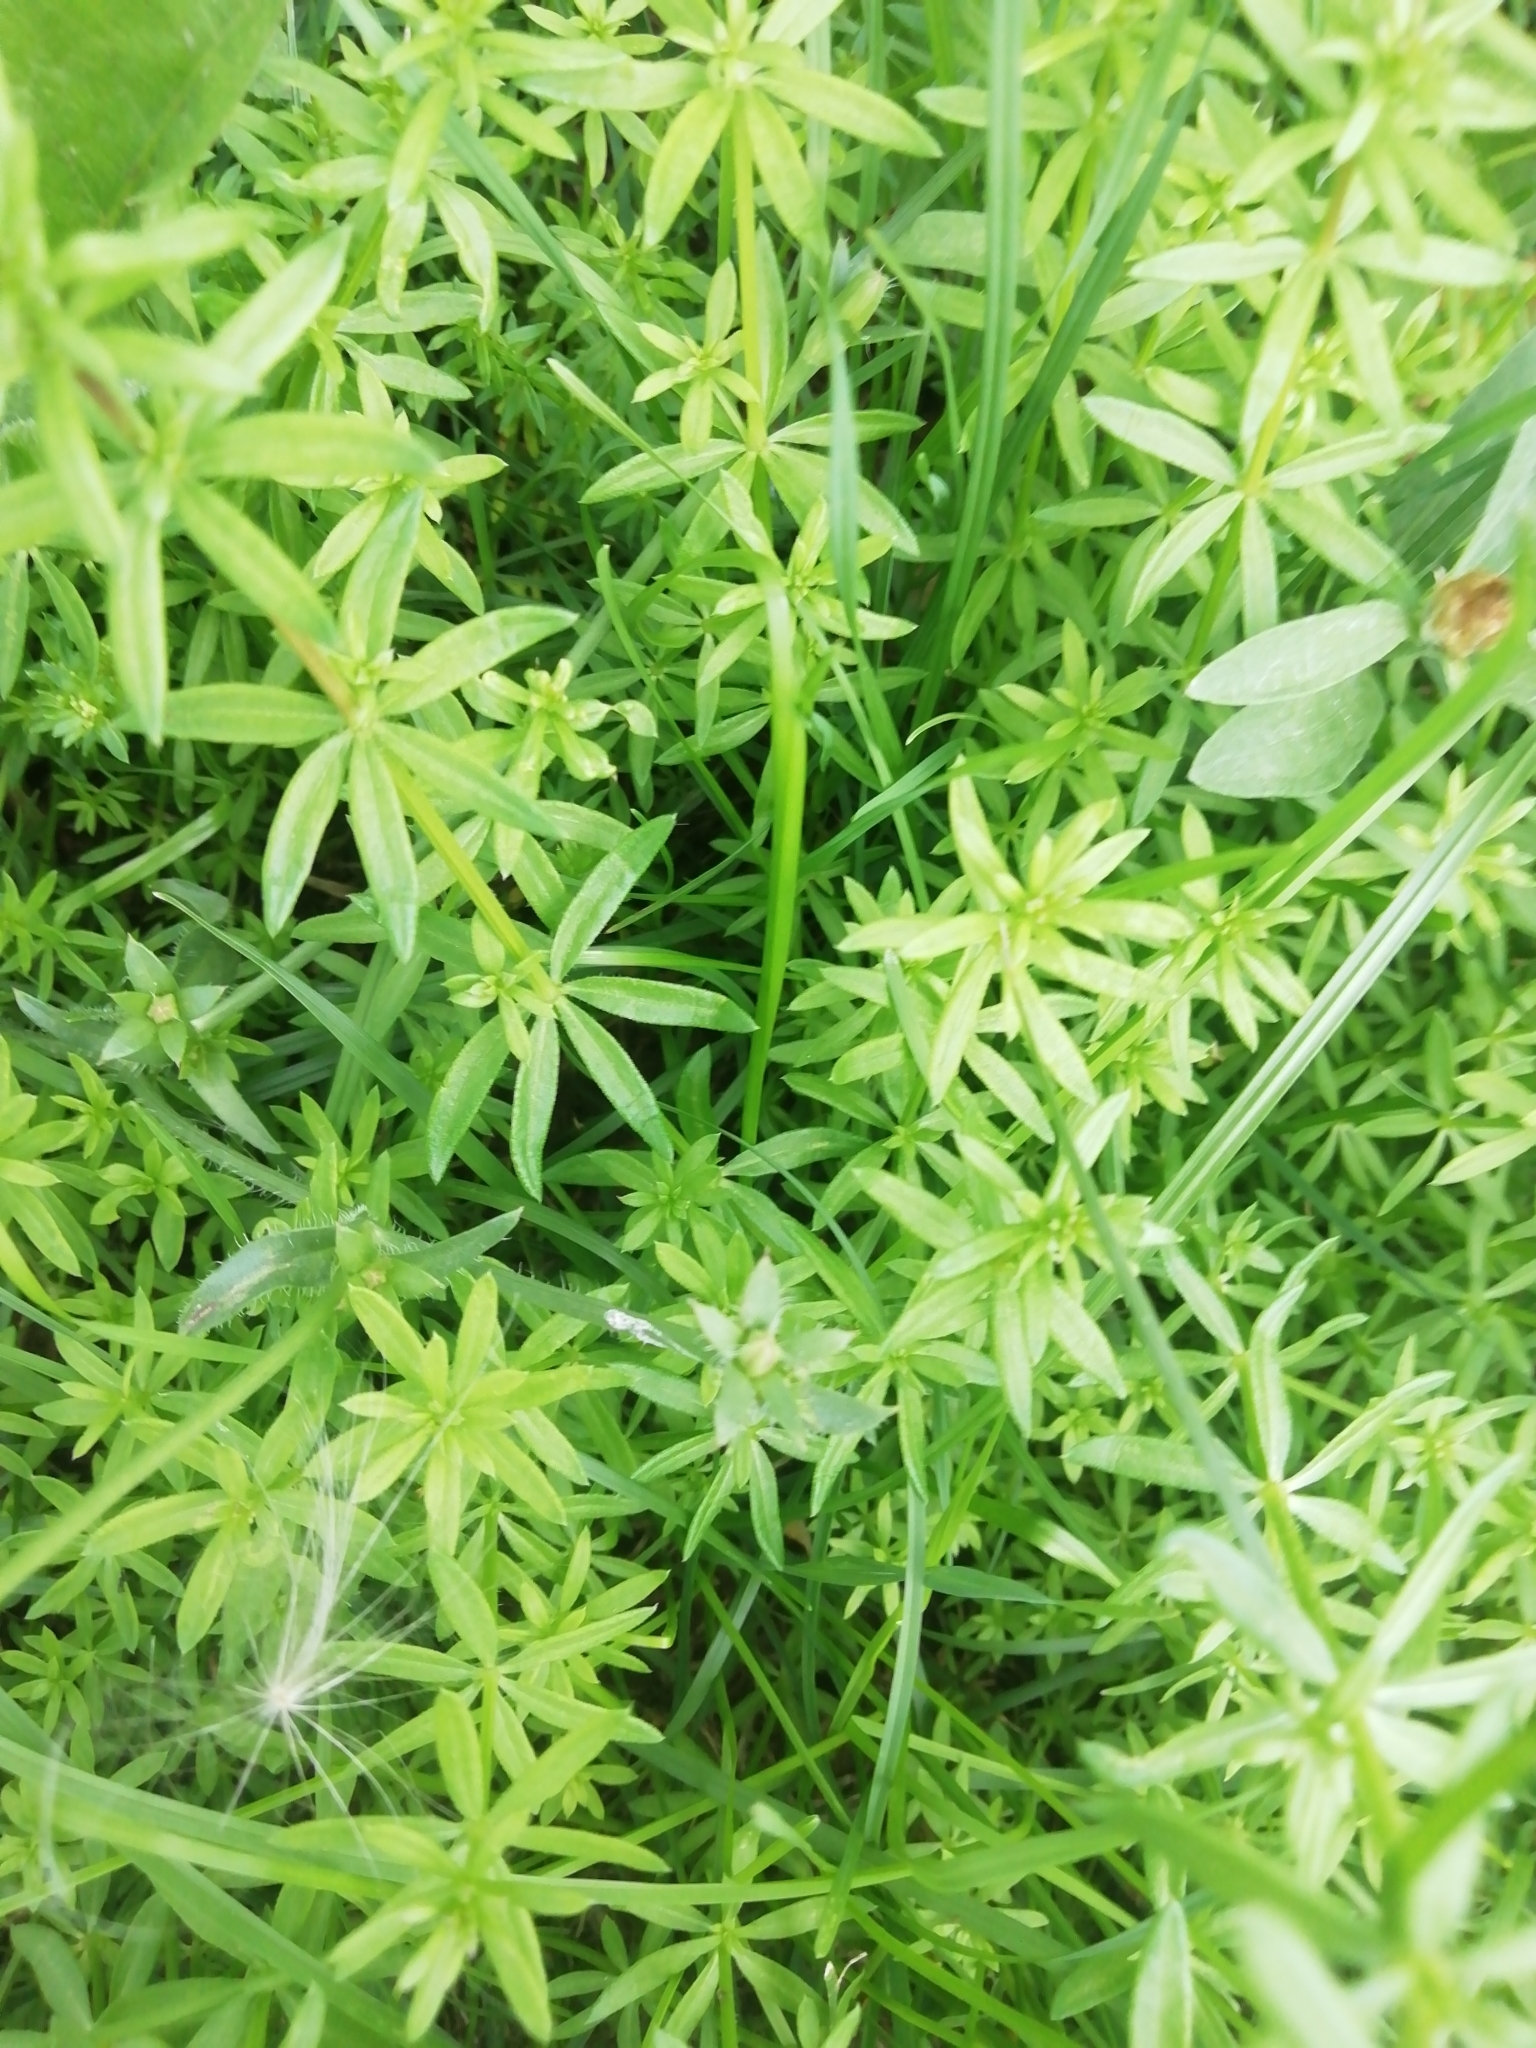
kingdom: Plantae
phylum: Tracheophyta
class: Magnoliopsida
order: Gentianales
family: Rubiaceae
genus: Galium
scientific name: Galium mollugo
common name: Hedge bedstraw
